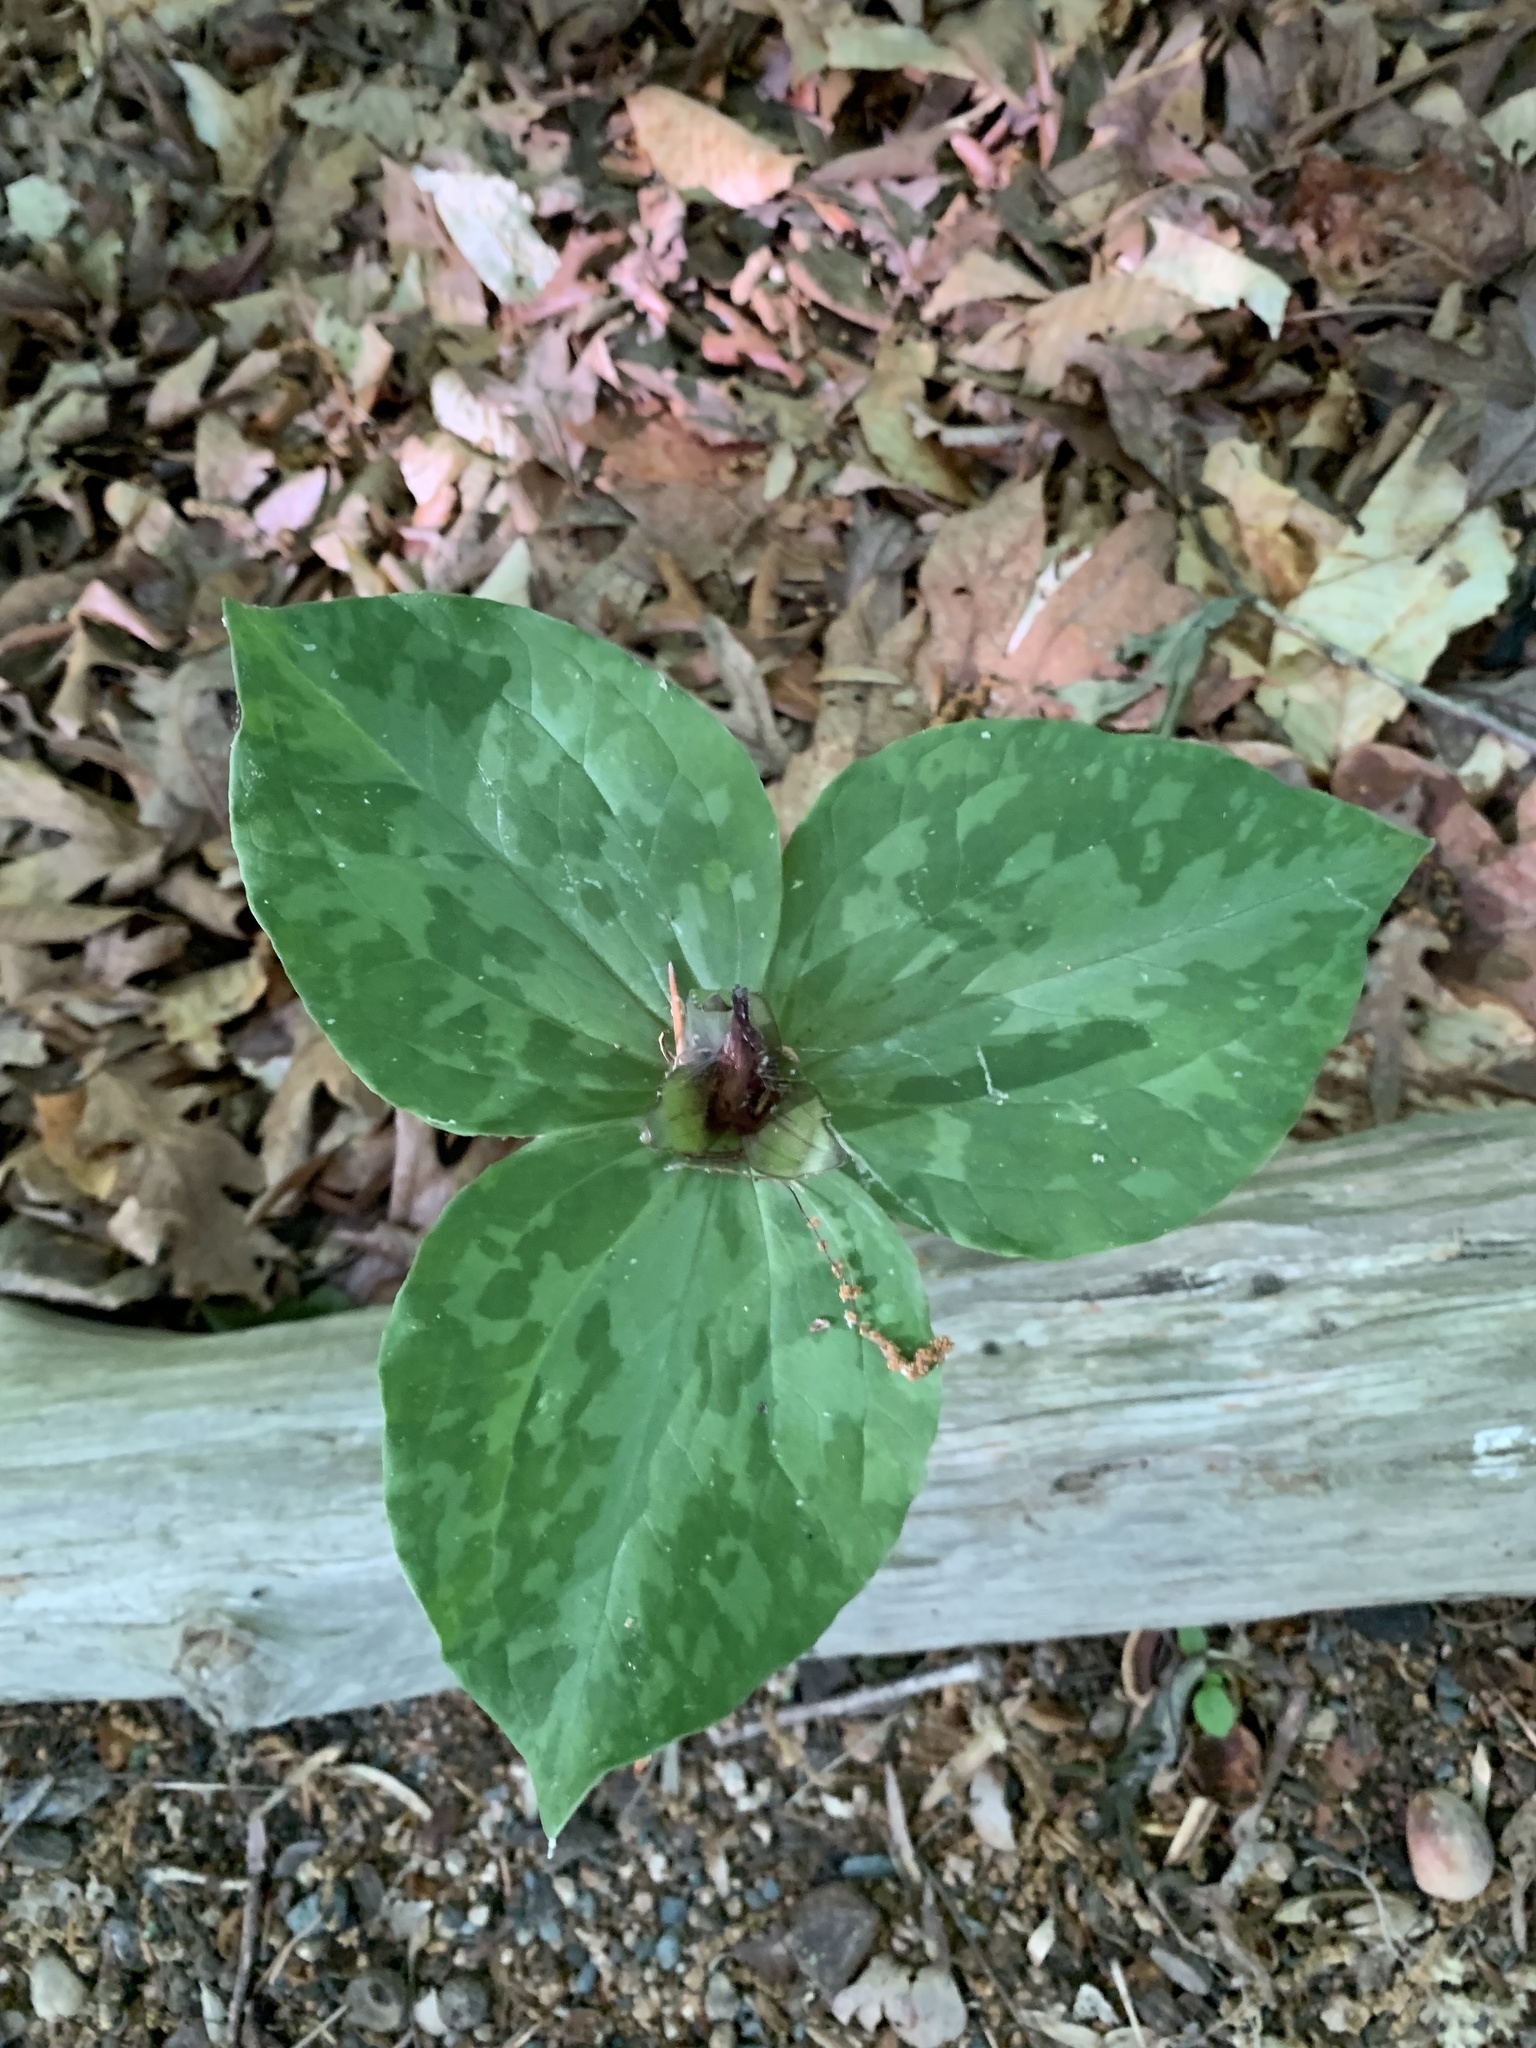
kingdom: Plantae
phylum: Tracheophyta
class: Liliopsida
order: Liliales
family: Melanthiaceae
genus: Trillium
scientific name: Trillium cuneatum
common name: Cuneate trillium
